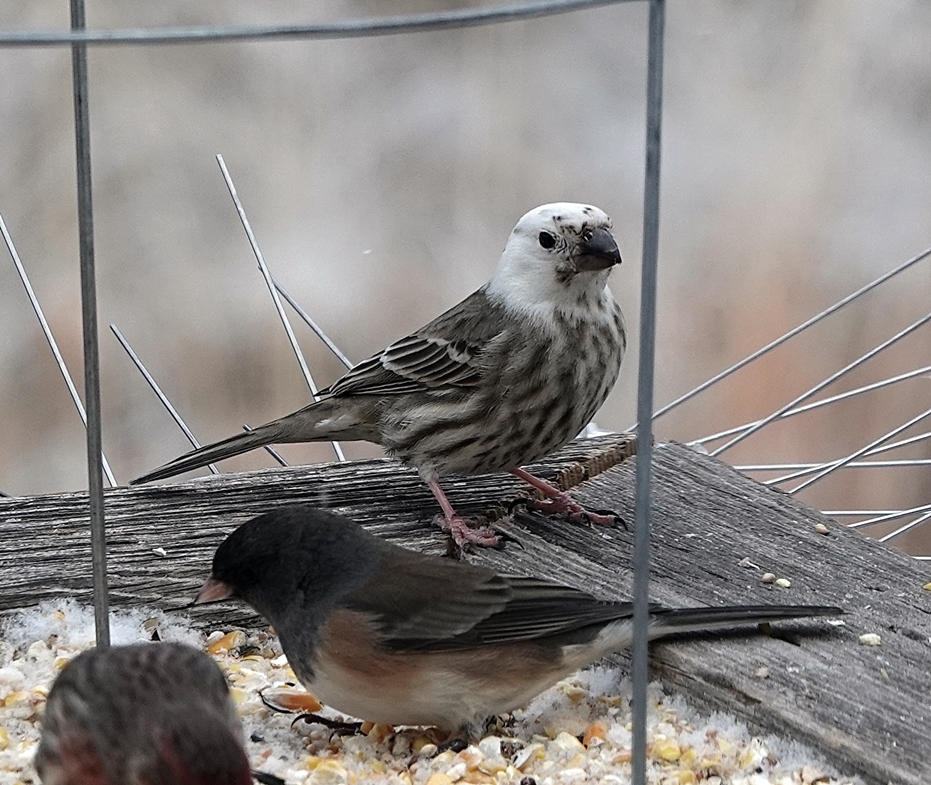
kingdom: Animalia
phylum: Chordata
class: Aves
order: Passeriformes
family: Fringillidae
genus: Haemorhous
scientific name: Haemorhous mexicanus
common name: House finch
